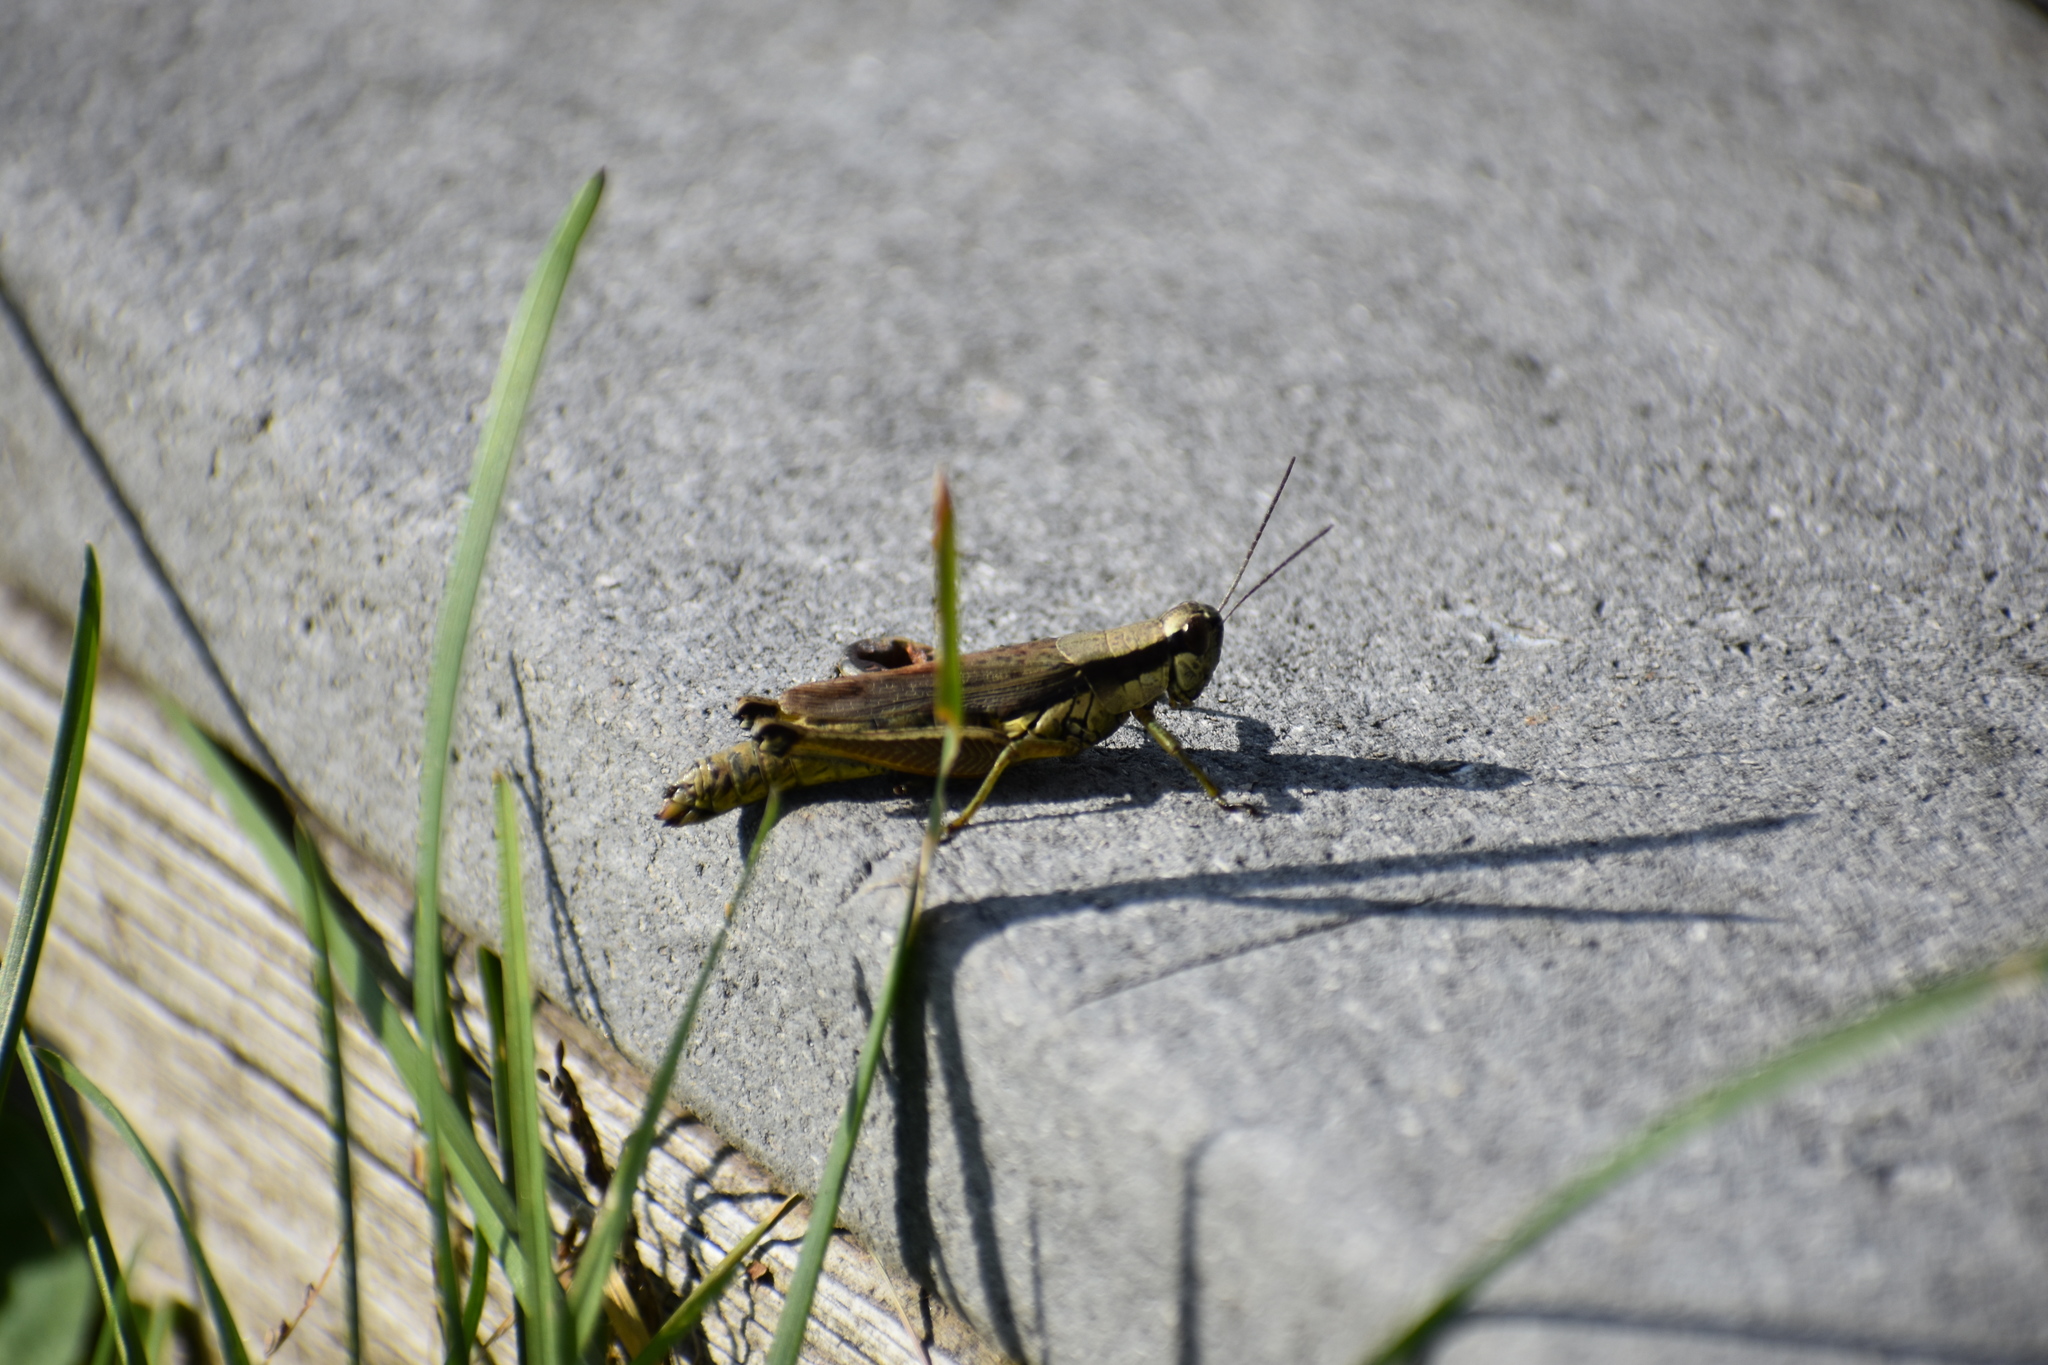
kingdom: Animalia
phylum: Arthropoda
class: Insecta
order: Orthoptera
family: Acrididae
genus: Paroxya
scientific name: Paroxya clavuligera
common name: Olive-green swamp grasshopper
